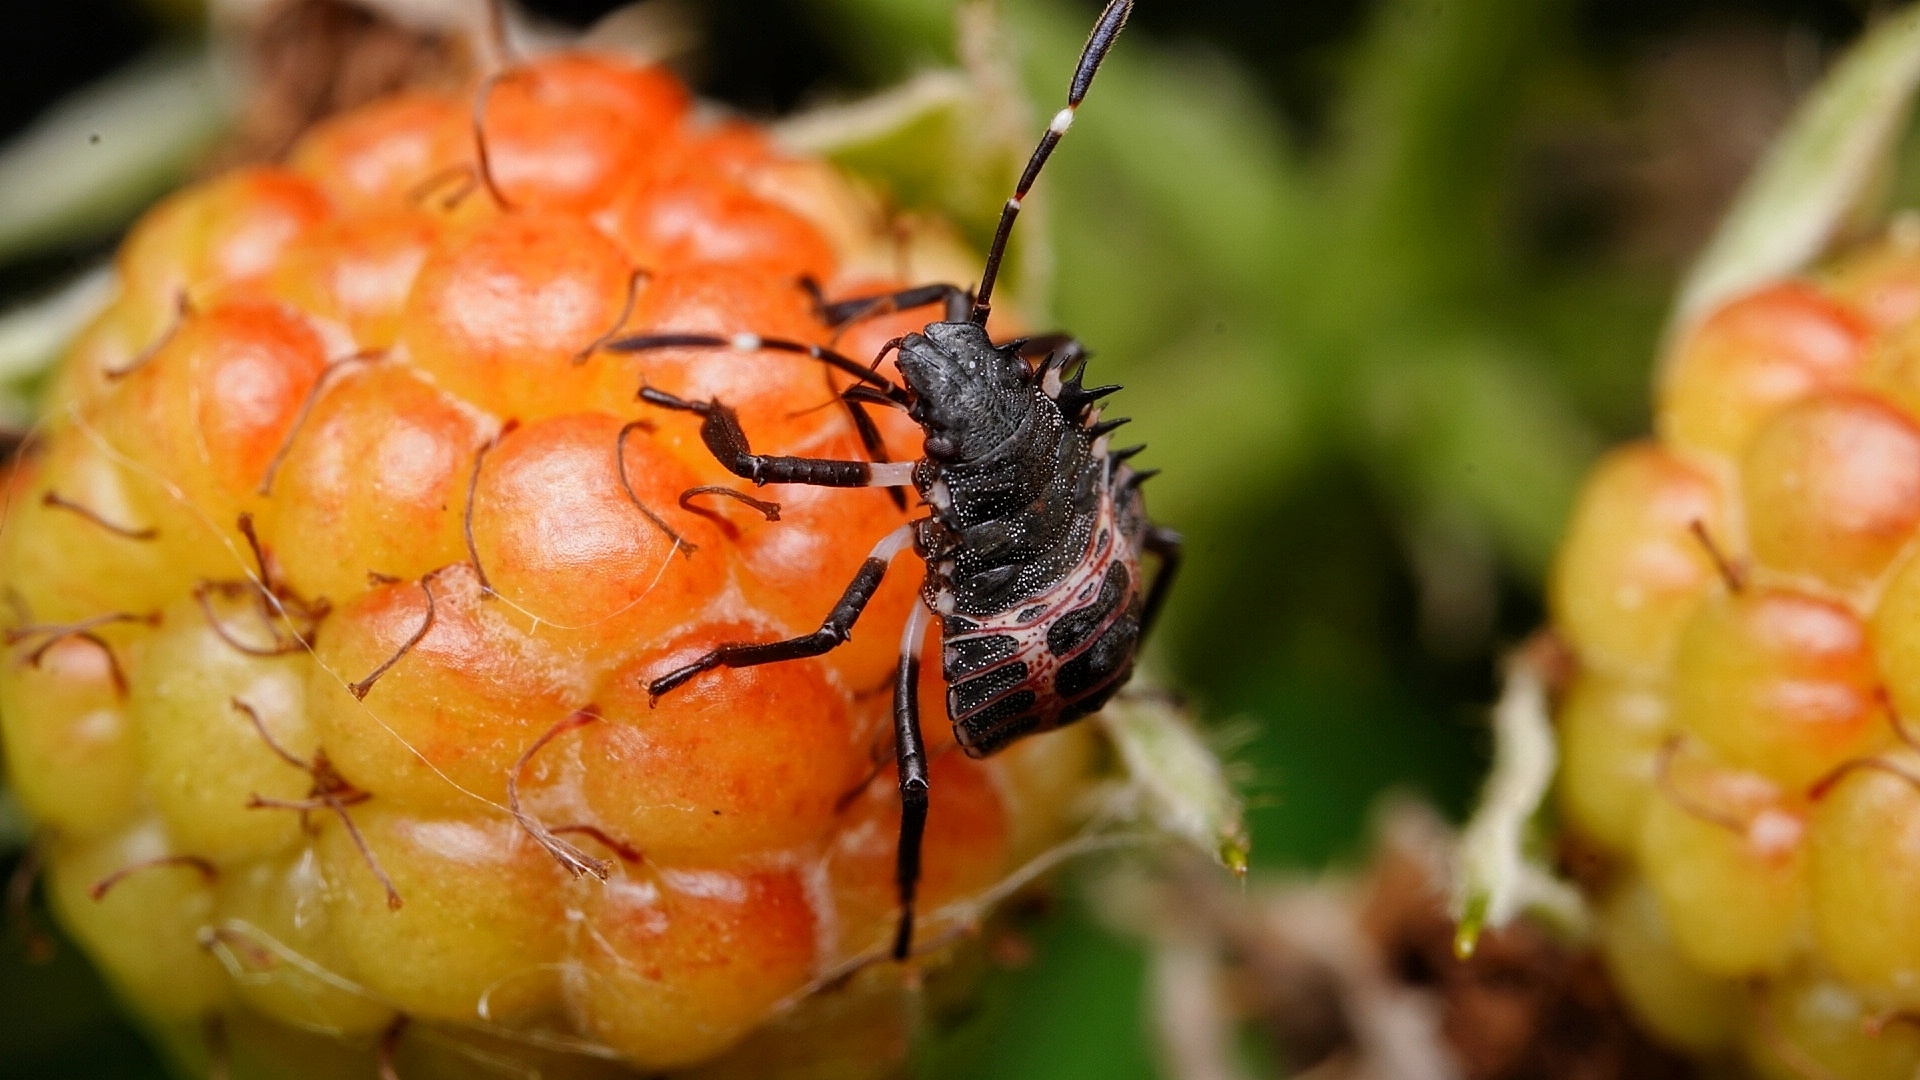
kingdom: Animalia
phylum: Arthropoda
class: Insecta
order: Hemiptera
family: Pentatomidae
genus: Halyomorpha
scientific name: Halyomorpha halys
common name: Brown marmorated stink bug
